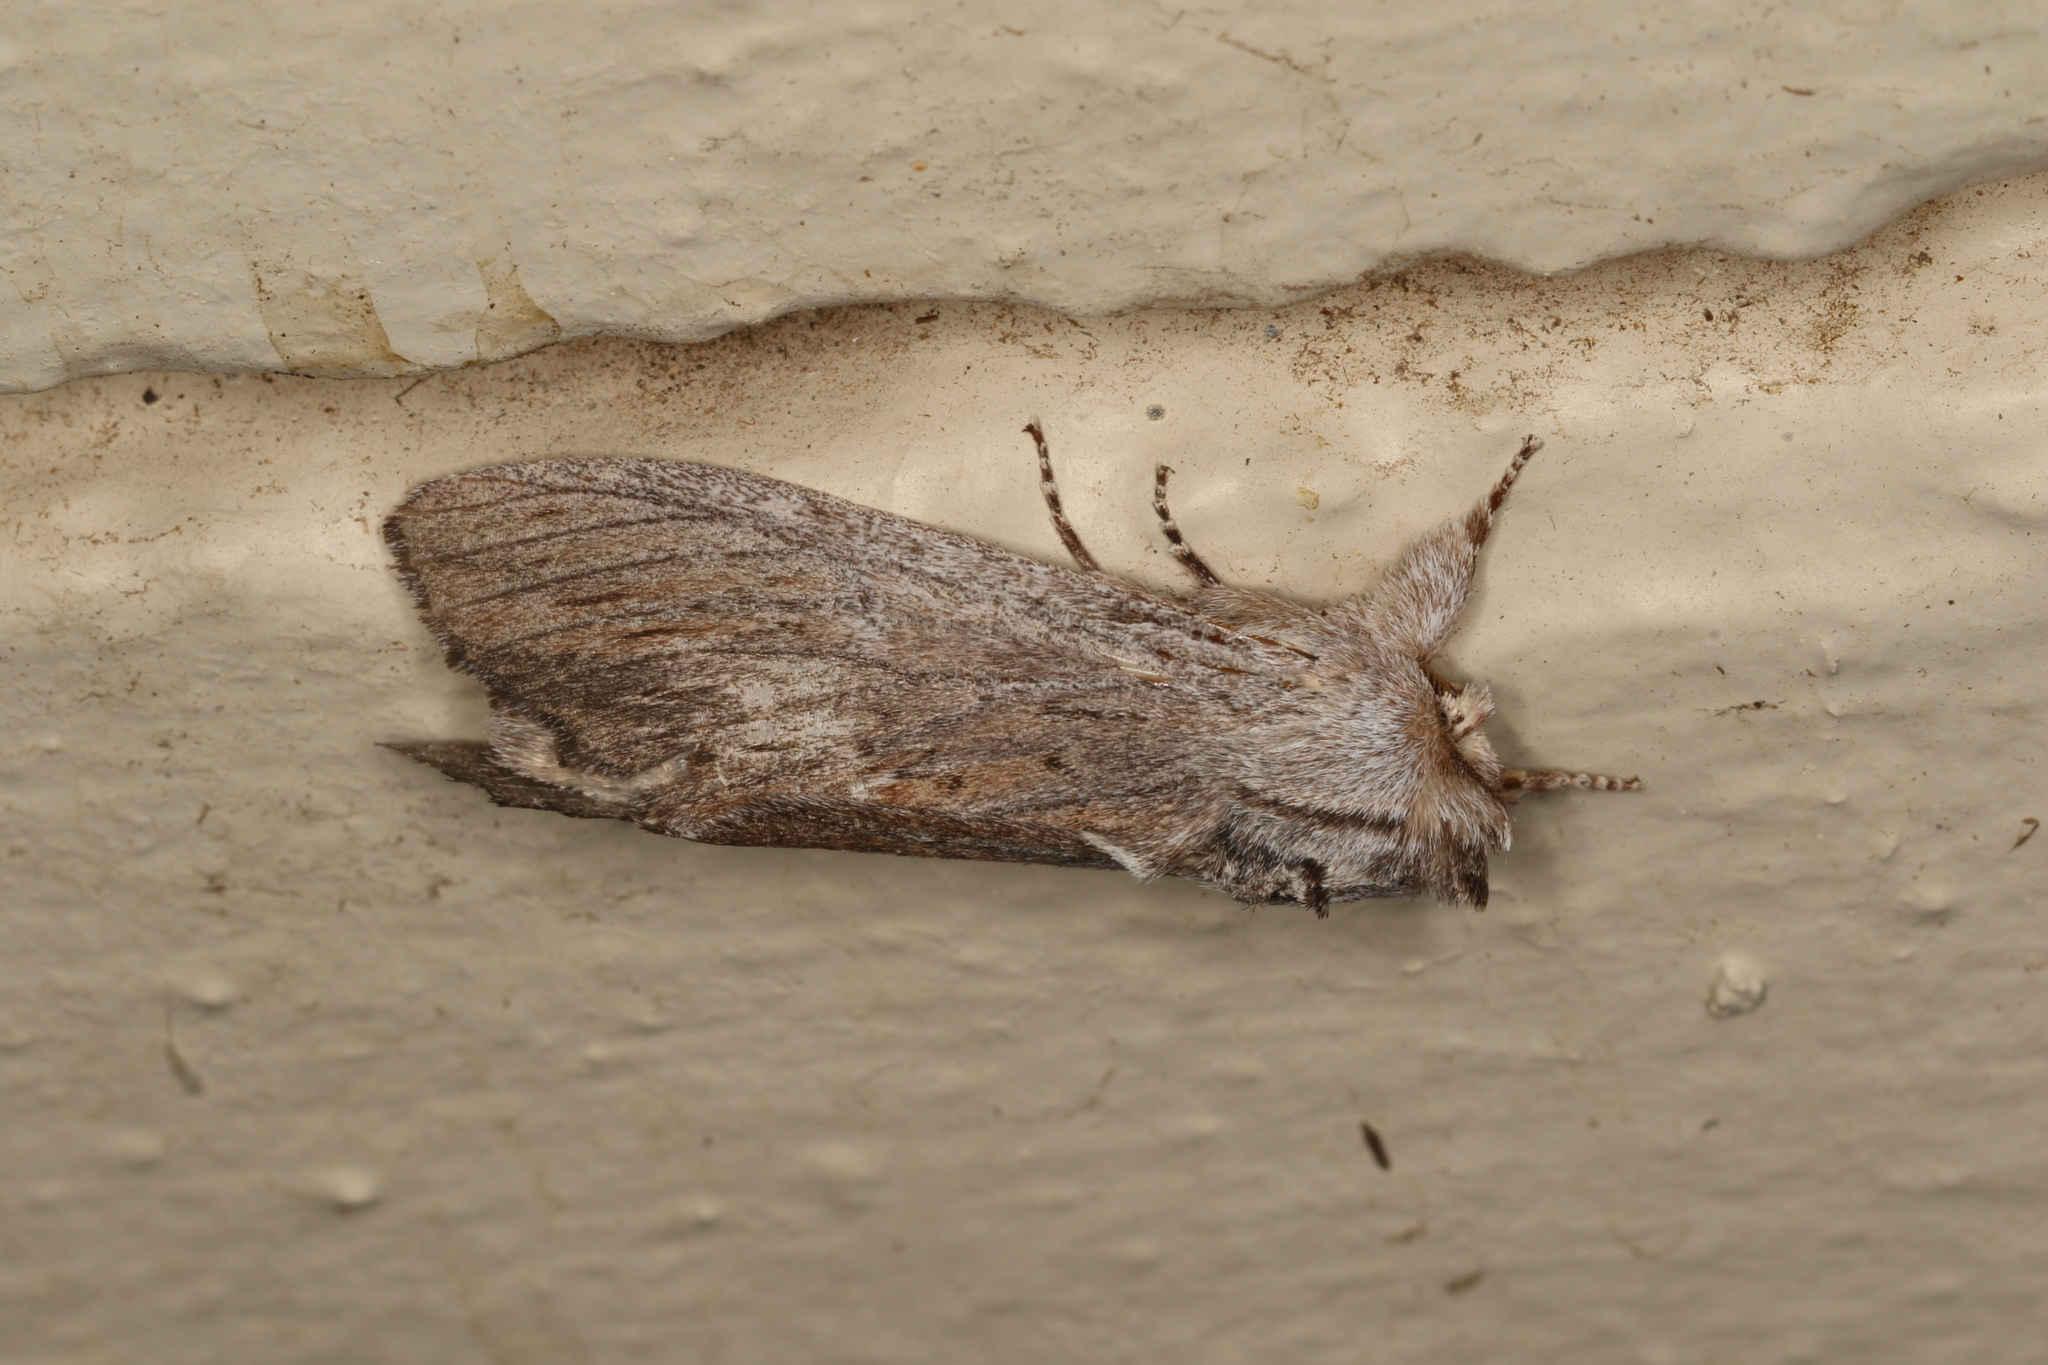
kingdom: Animalia
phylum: Arthropoda
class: Insecta
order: Lepidoptera
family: Notodontidae
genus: Destolmia
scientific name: Destolmia lineata
